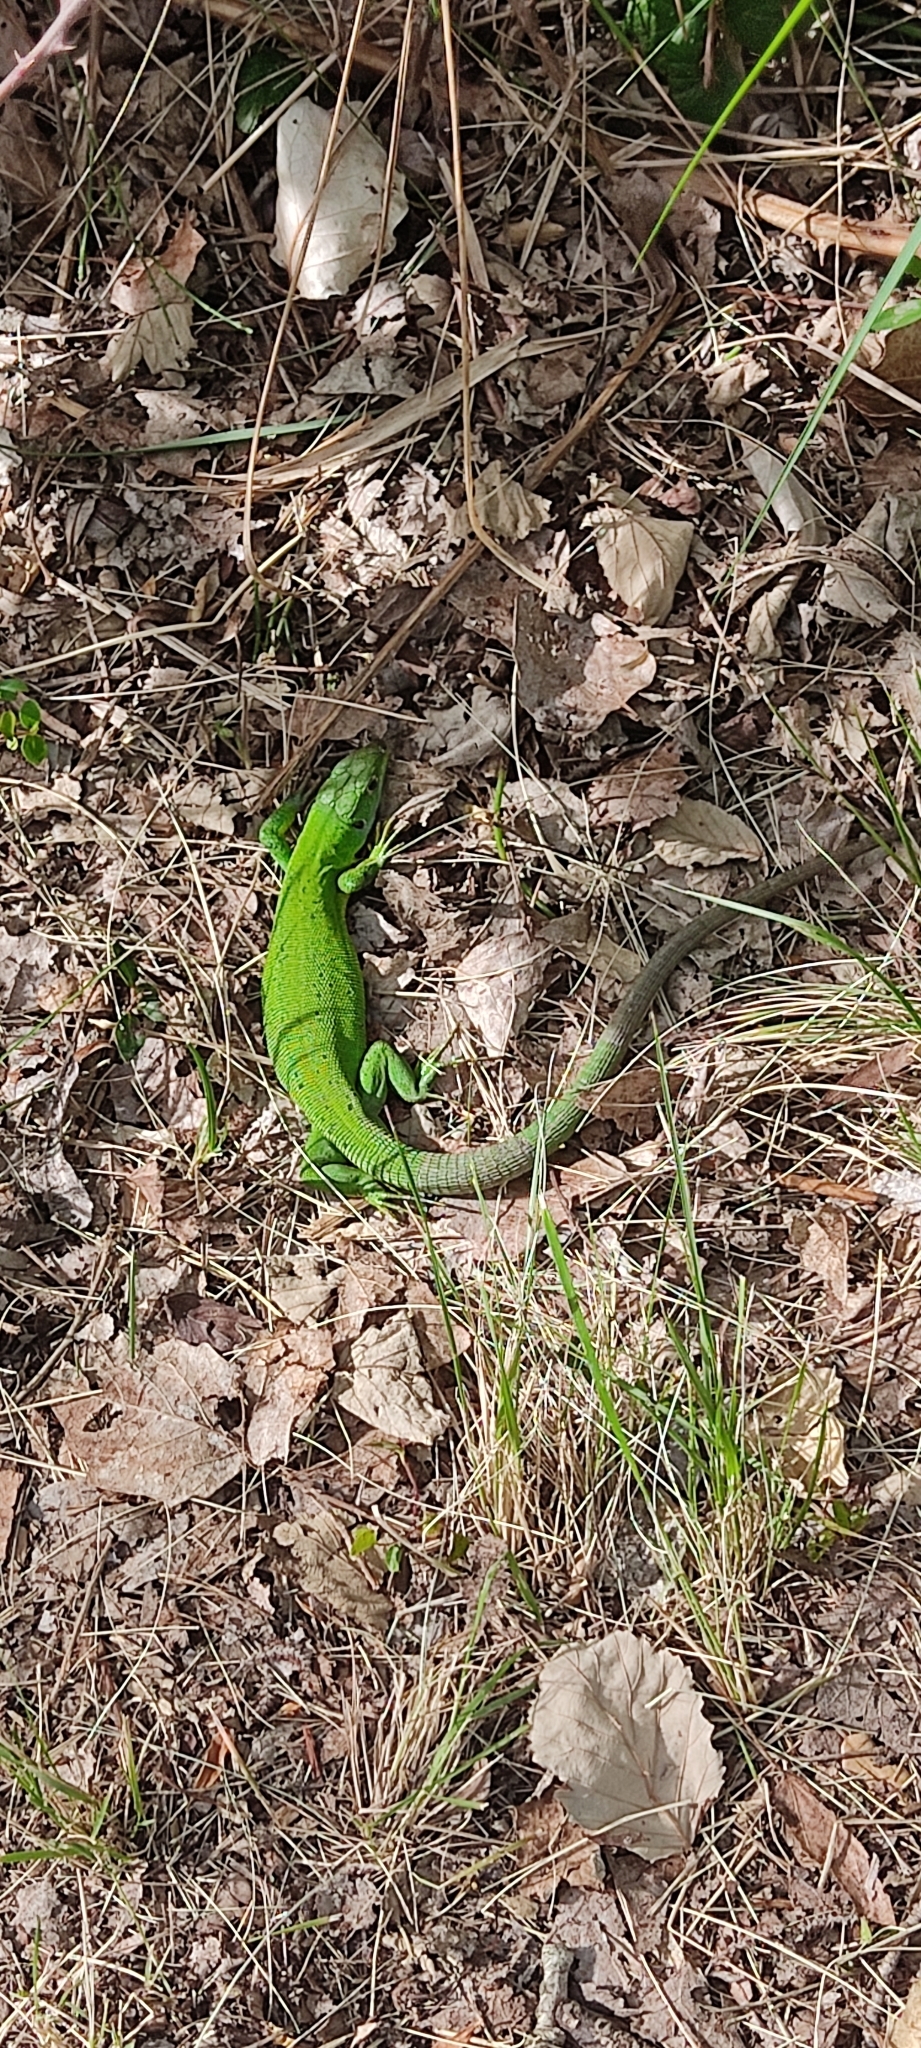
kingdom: Animalia
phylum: Chordata
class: Squamata
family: Lacertidae
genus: Lacerta
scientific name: Lacerta bilineata
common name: Western green lizard
